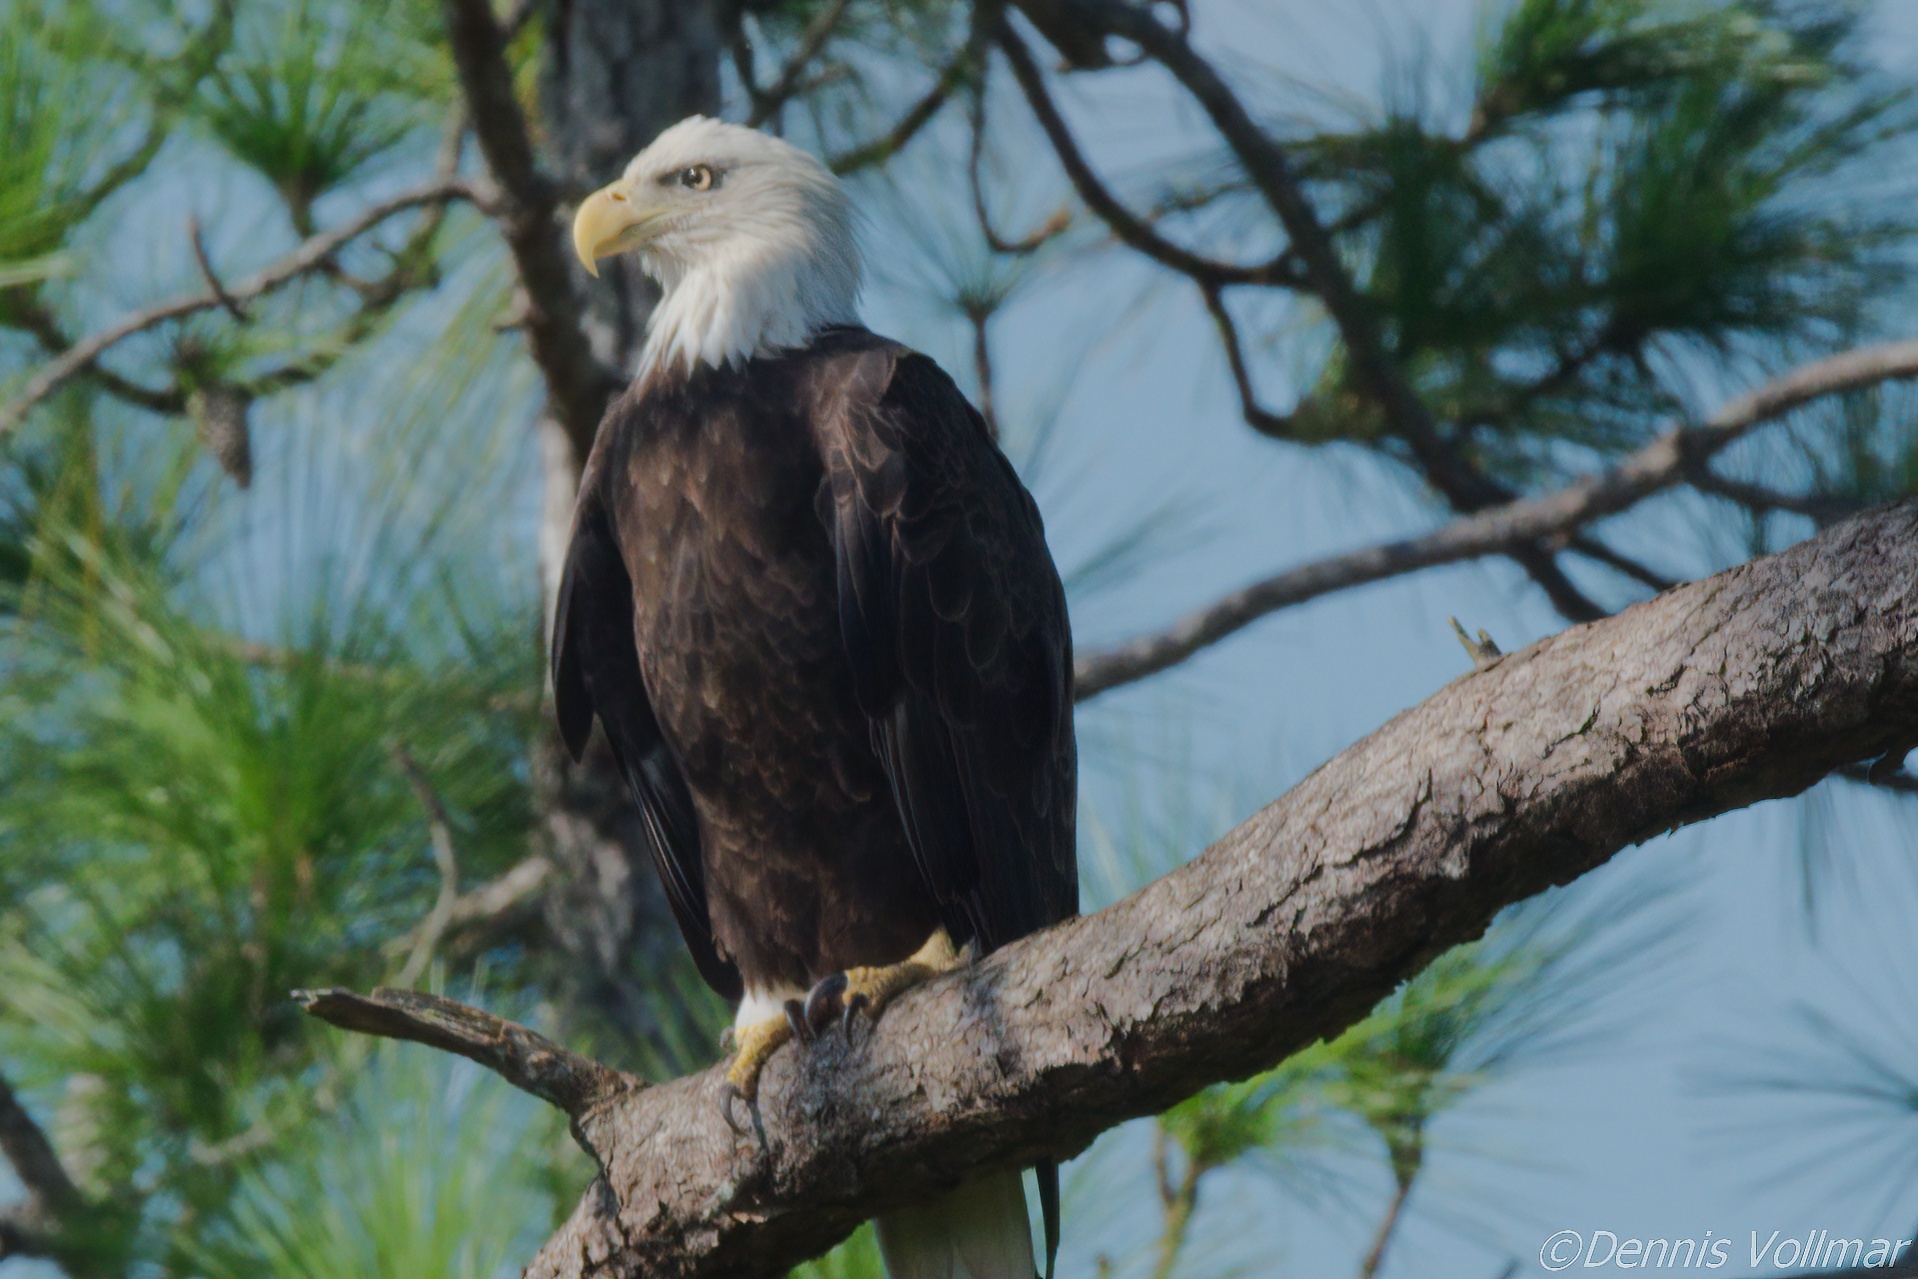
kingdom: Animalia
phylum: Chordata
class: Aves
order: Accipitriformes
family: Accipitridae
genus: Haliaeetus
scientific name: Haliaeetus leucocephalus
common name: Bald eagle
